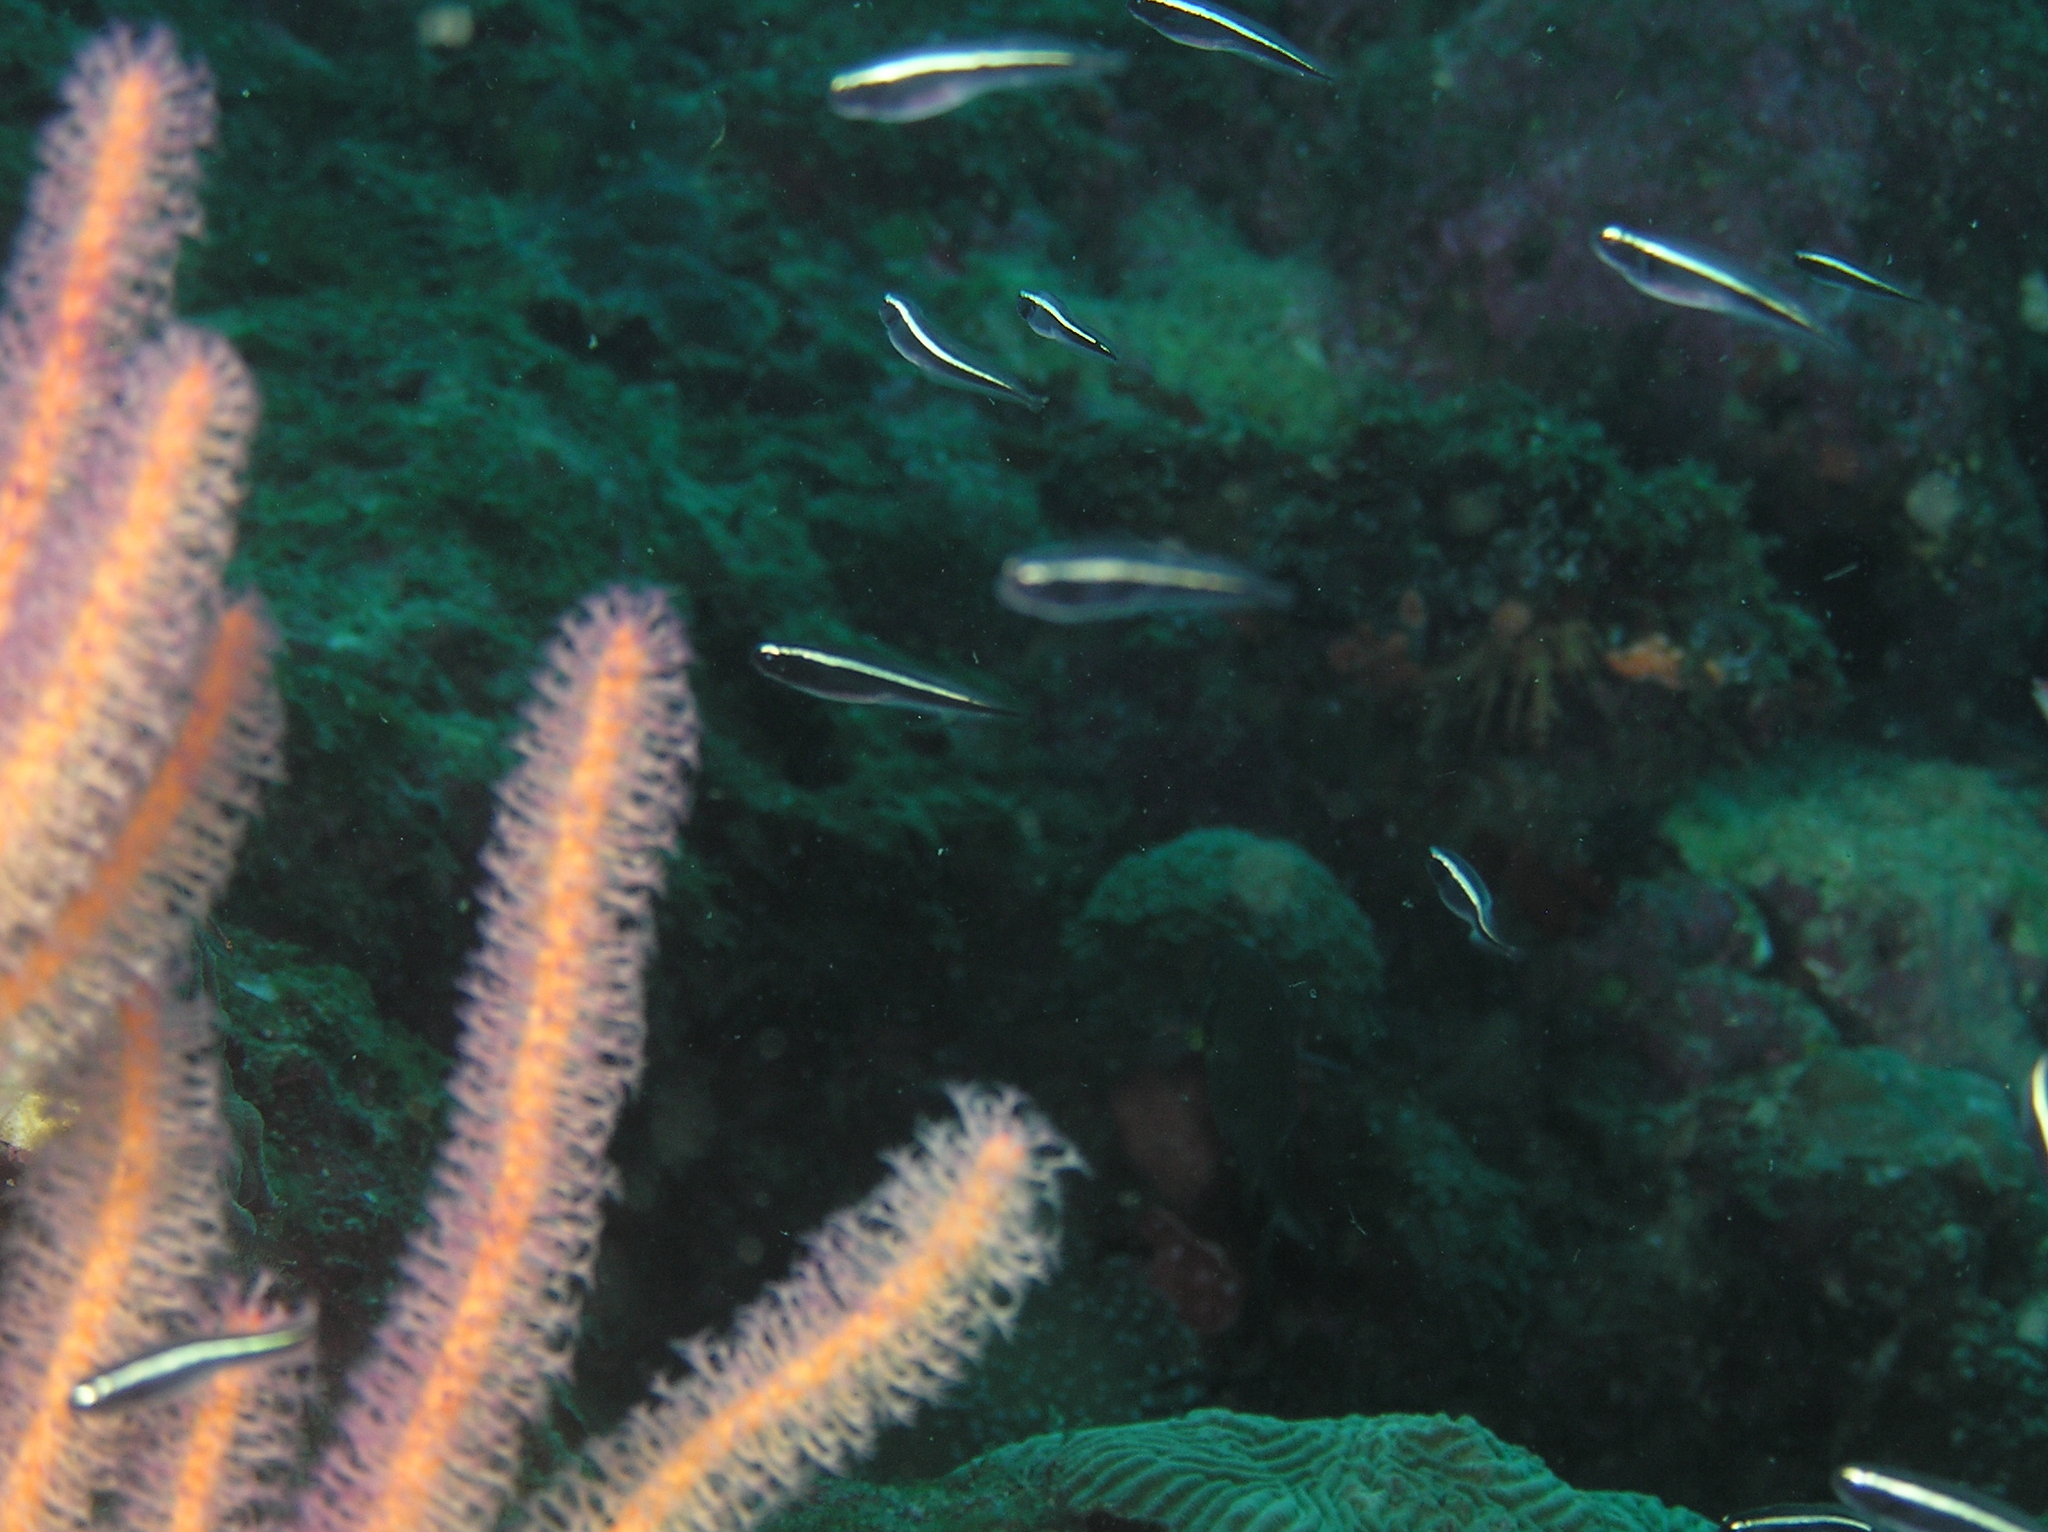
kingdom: Animalia
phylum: Chordata
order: Perciformes
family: Pholidichthyidae
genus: Pholidichthys
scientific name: Pholidichthys leucotaenia
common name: Convict blenny
